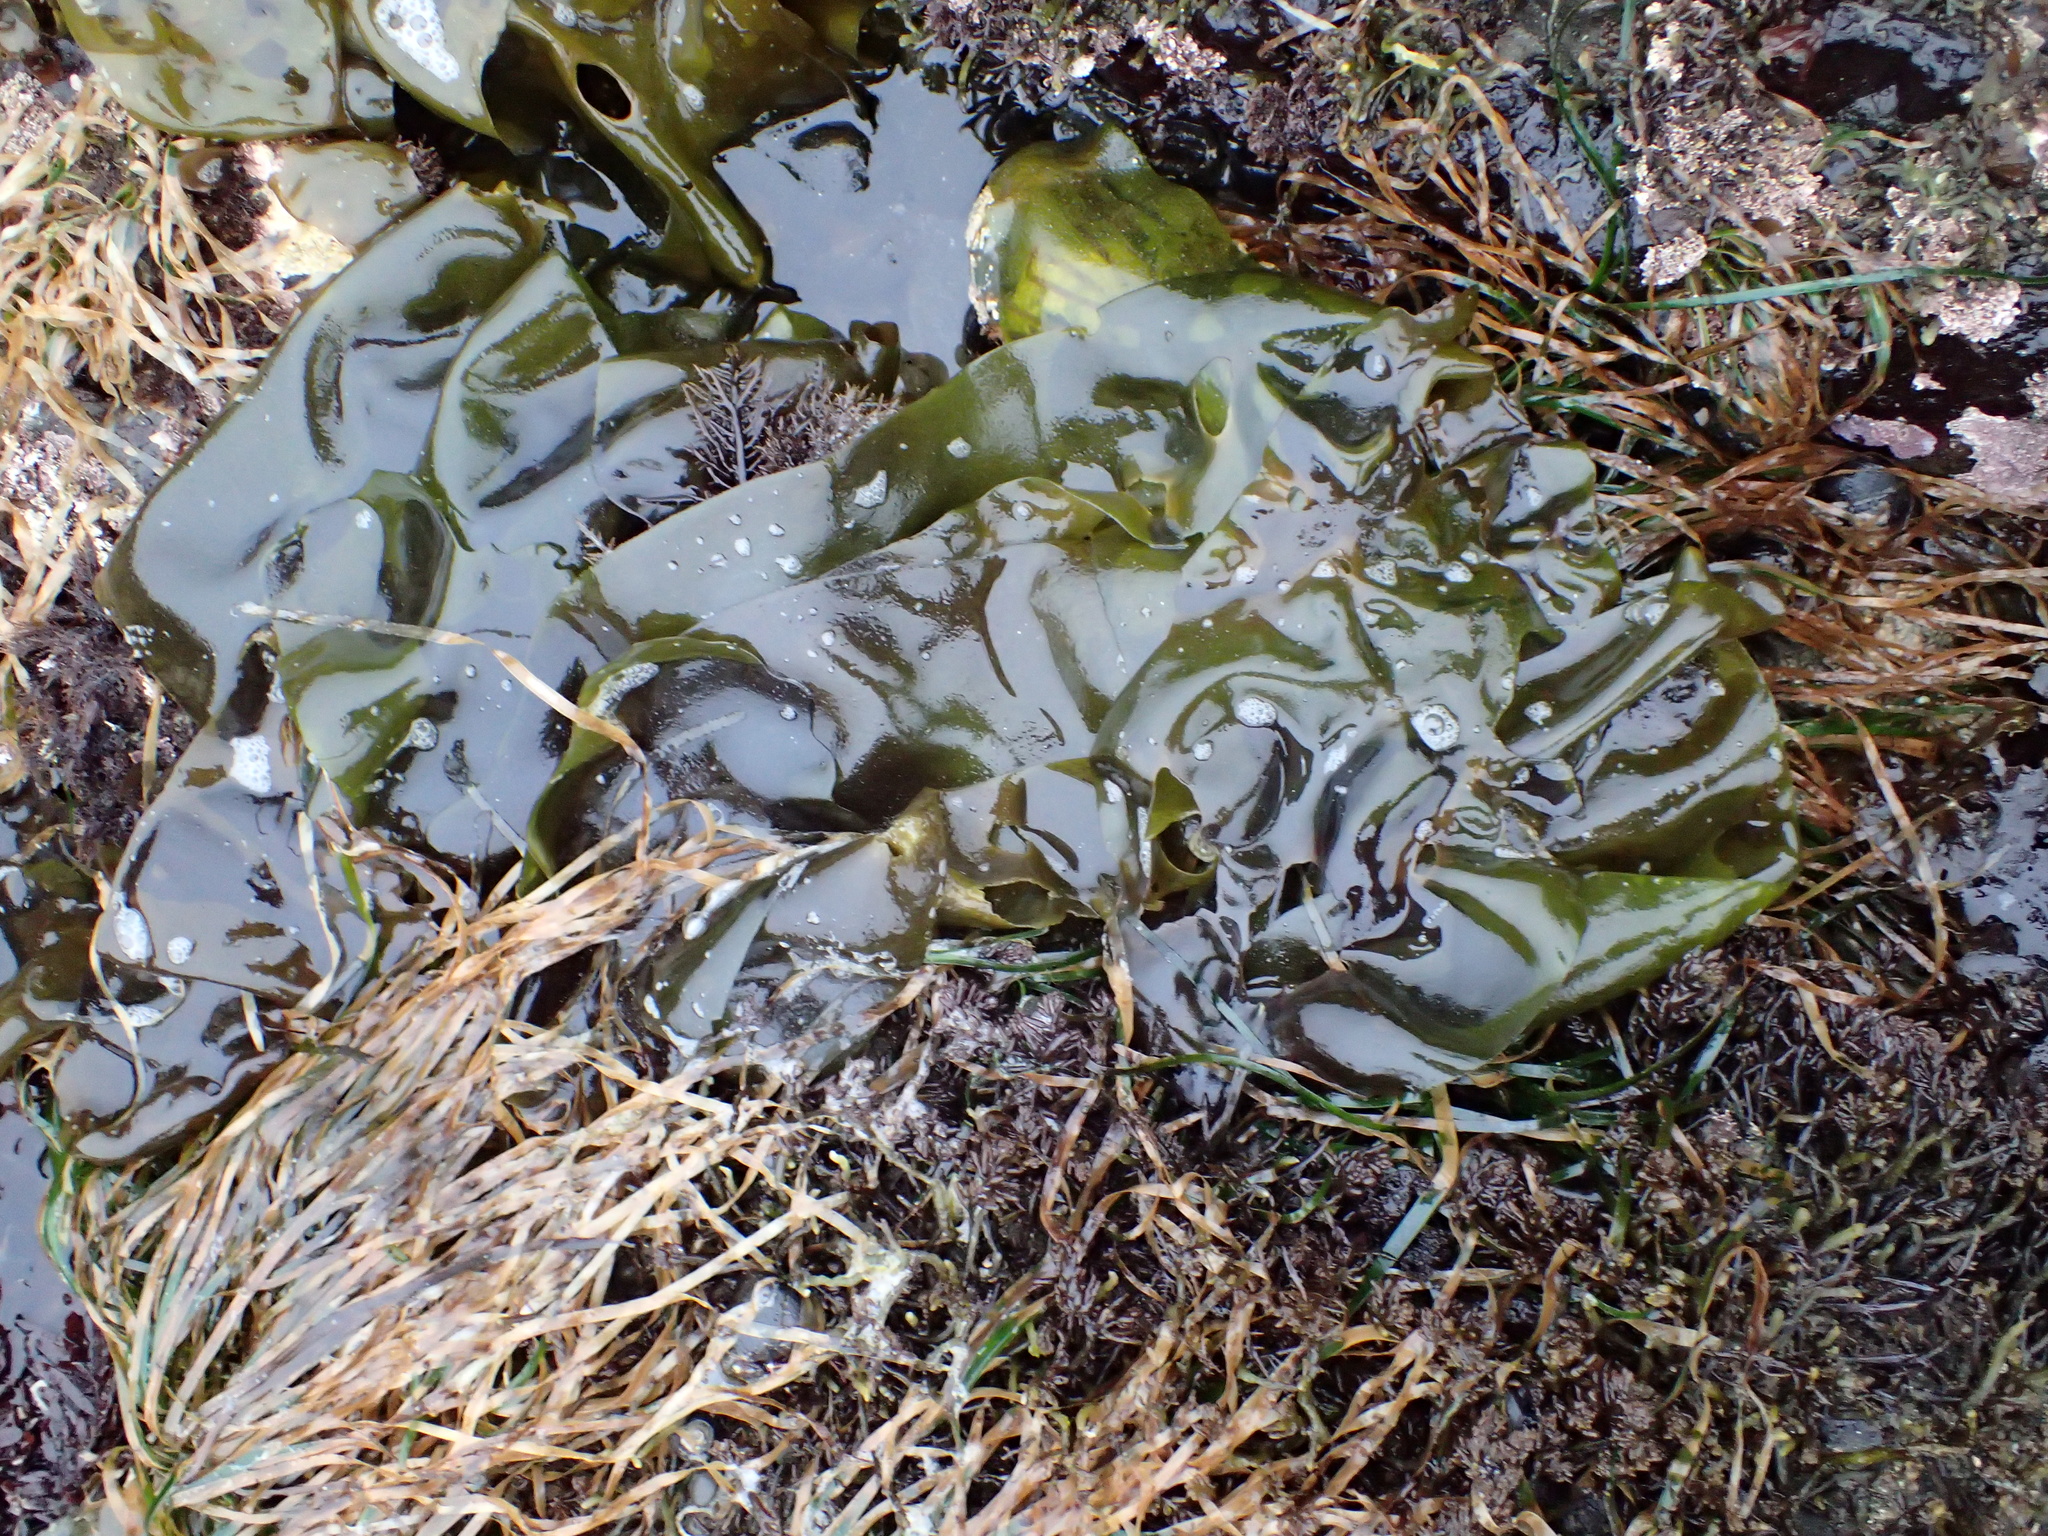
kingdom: Plantae
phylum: Rhodophyta
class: Florideophyceae
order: Gigartinales
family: Gigartinaceae
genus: Mazzaella
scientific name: Mazzaella flaccida
